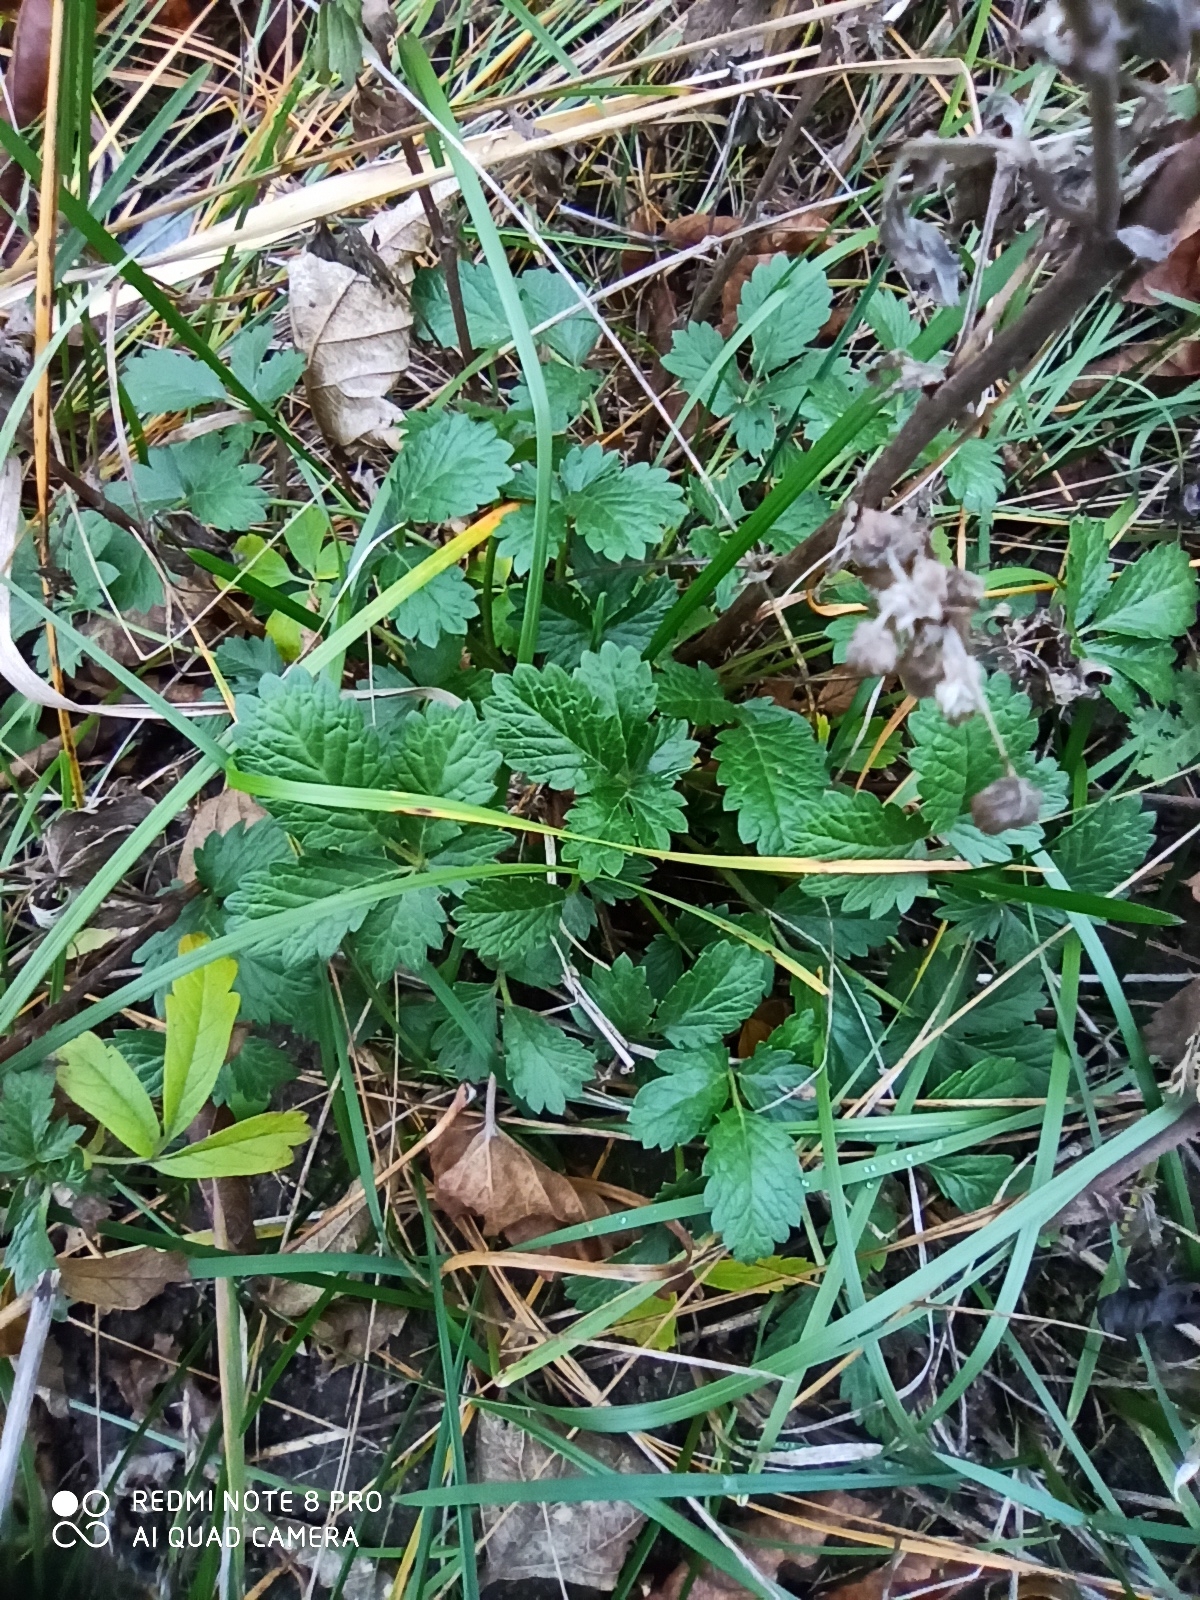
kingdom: Plantae
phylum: Tracheophyta
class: Magnoliopsida
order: Rosales
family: Rosaceae
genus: Potentilla
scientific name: Potentilla intermedia
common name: Downy cinquefoil
